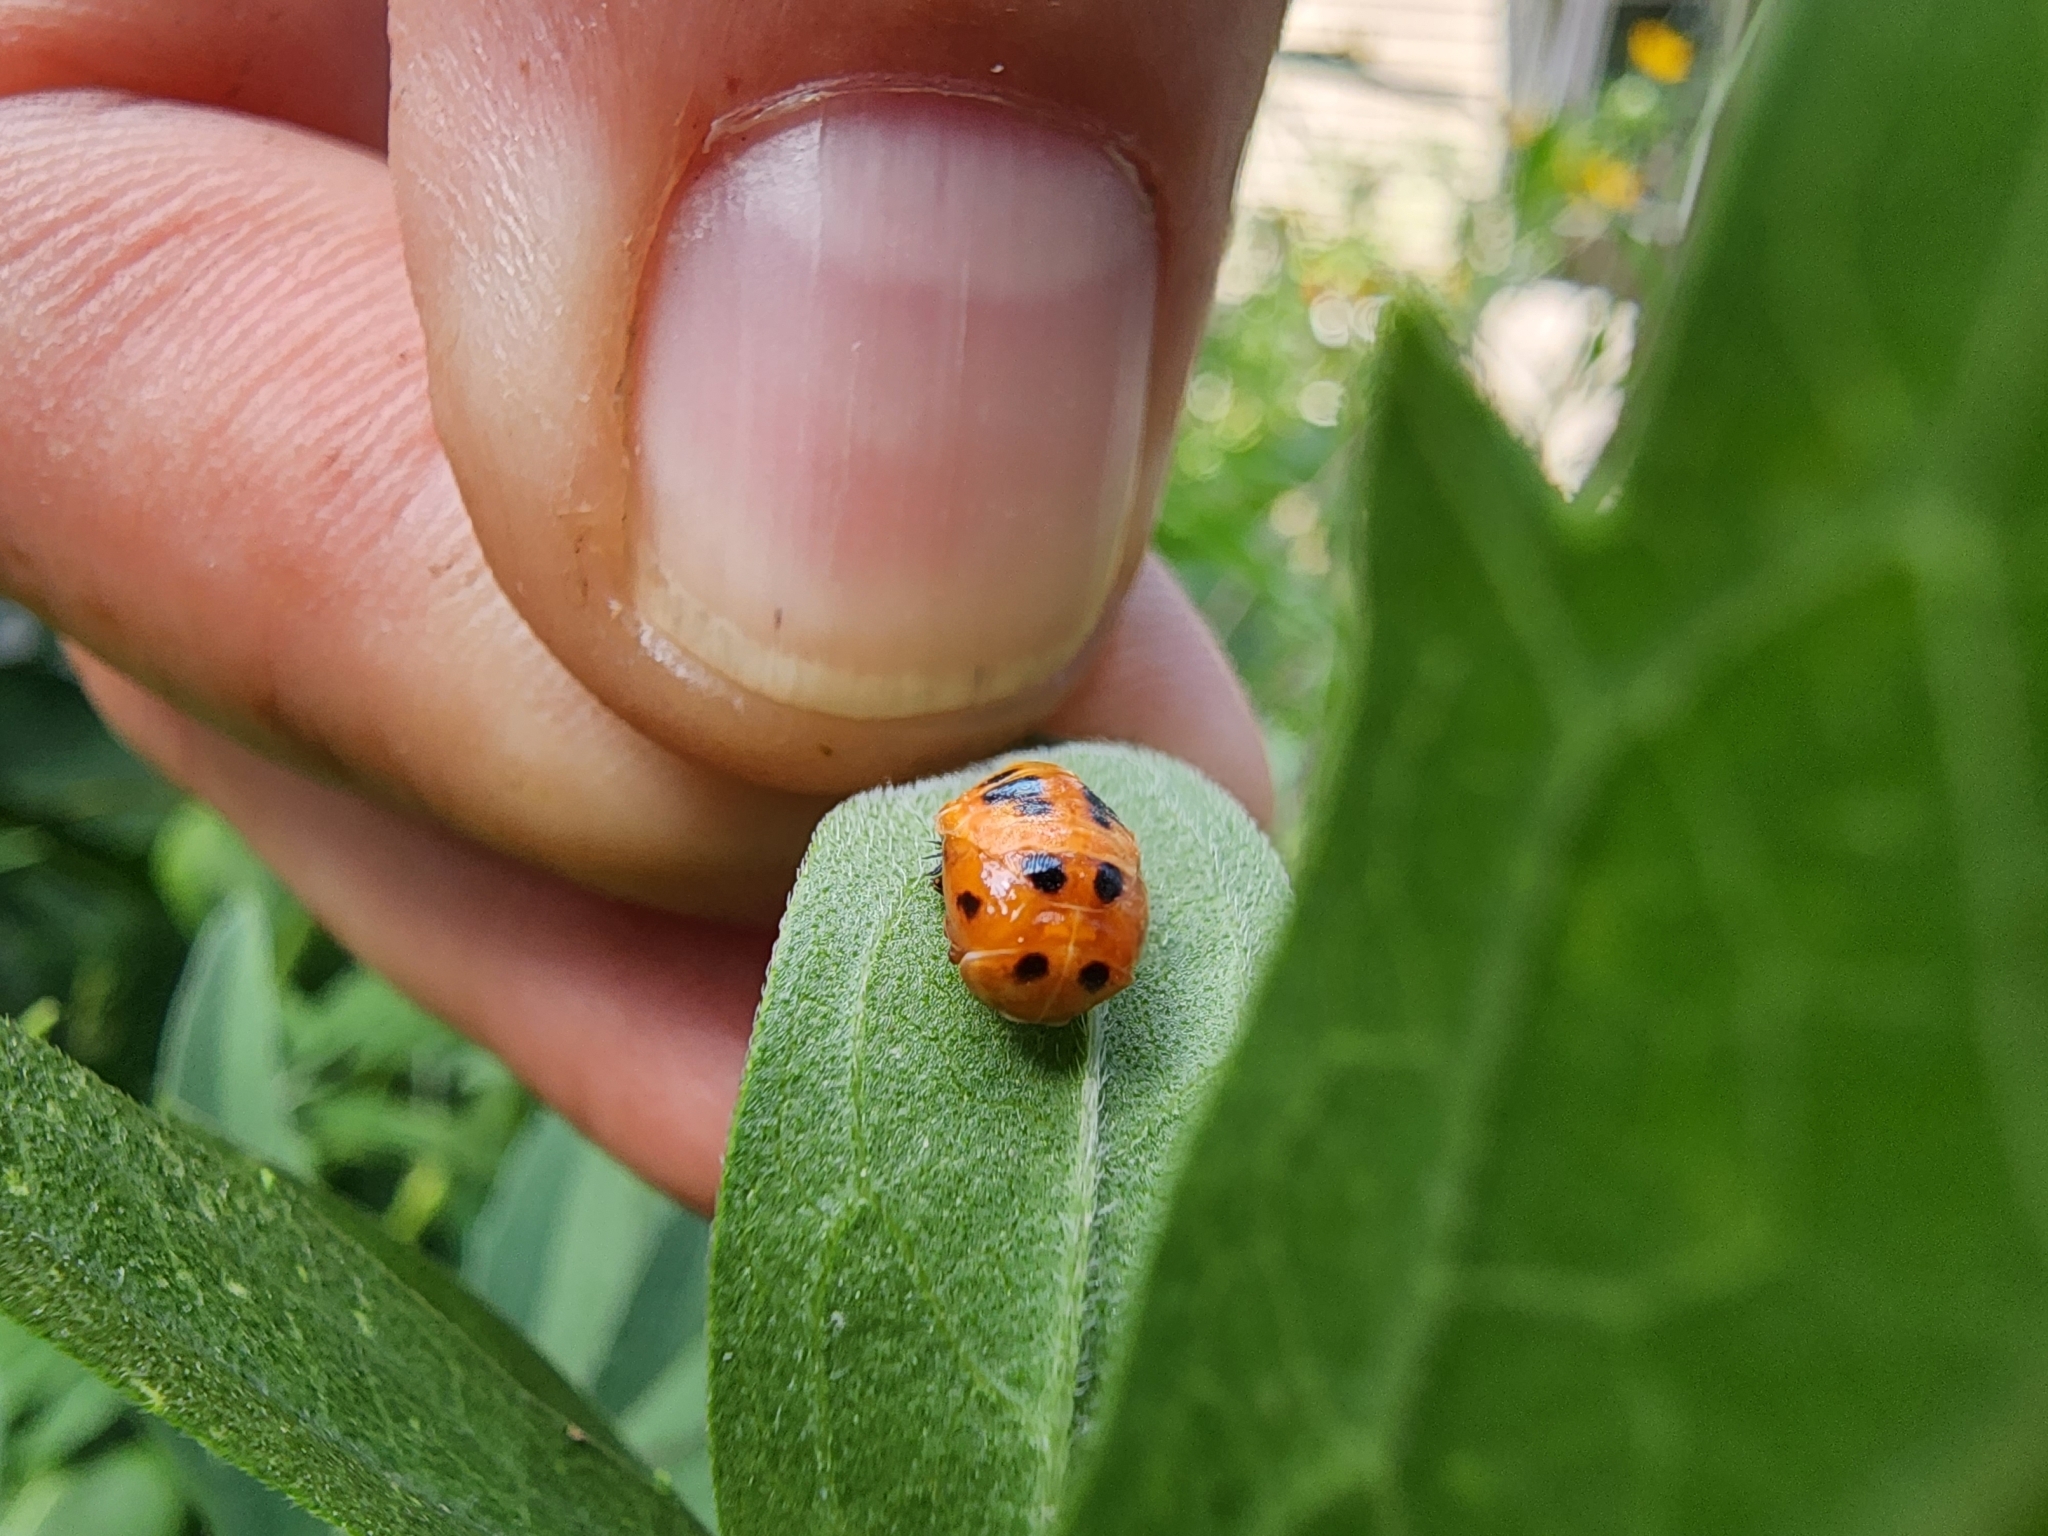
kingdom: Animalia
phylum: Arthropoda
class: Insecta
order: Coleoptera
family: Coccinellidae
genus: Harmonia
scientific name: Harmonia axyridis
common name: Harlequin ladybird
